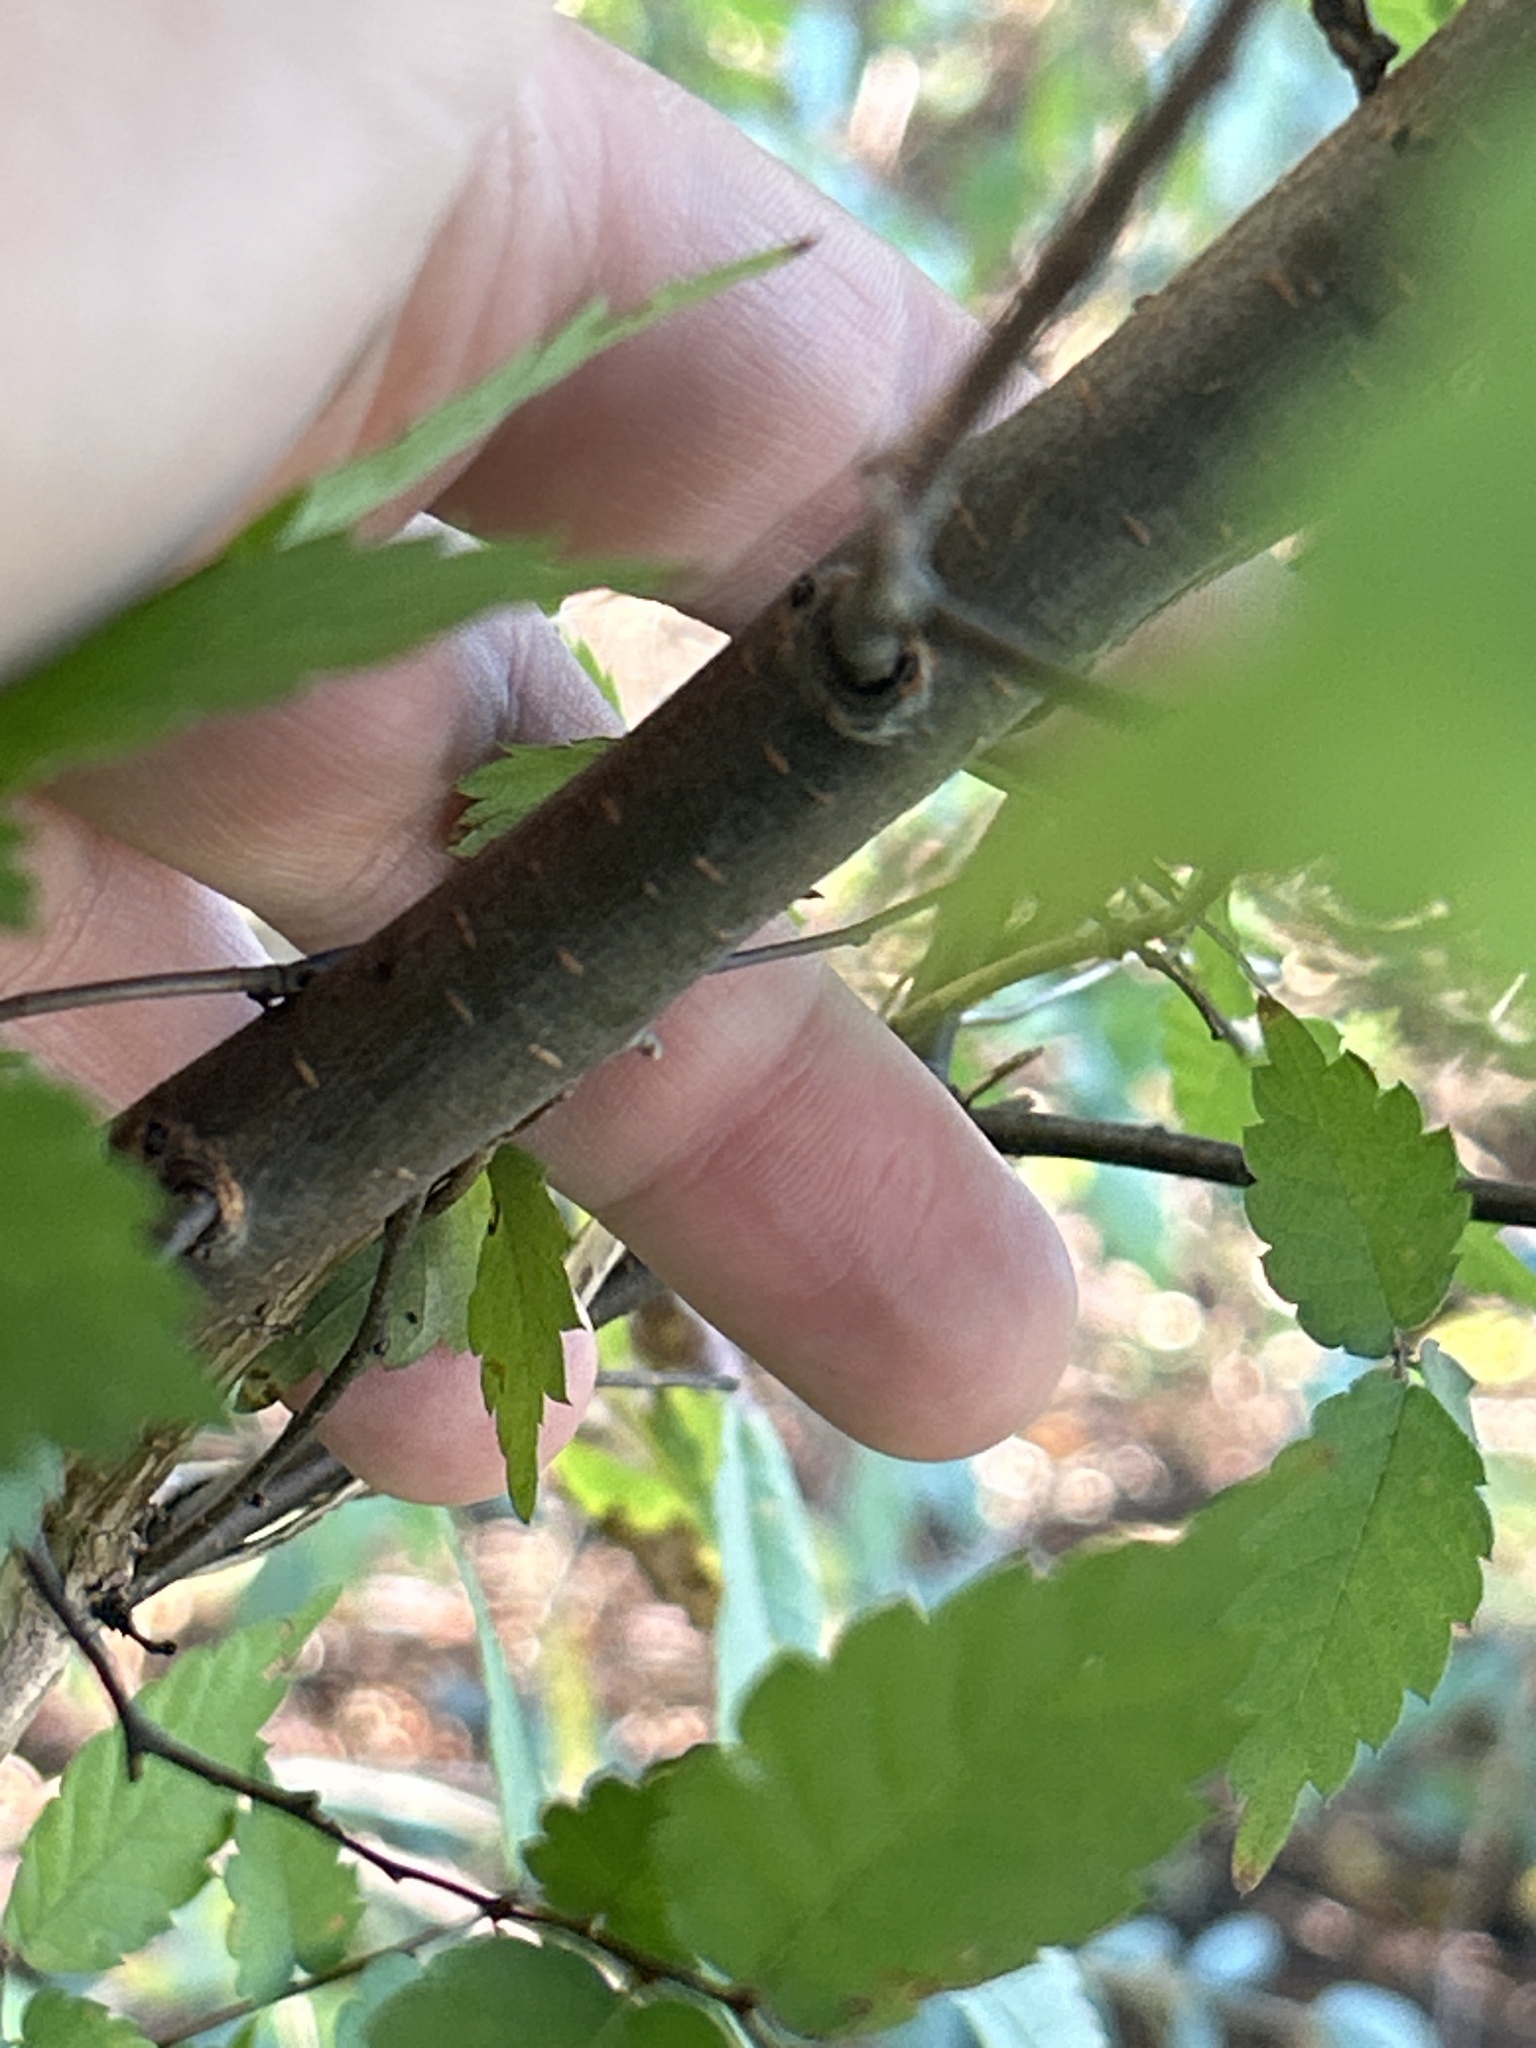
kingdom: Plantae
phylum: Tracheophyta
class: Magnoliopsida
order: Rosales
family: Ulmaceae
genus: Ulmus
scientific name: Ulmus americana
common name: American elm
